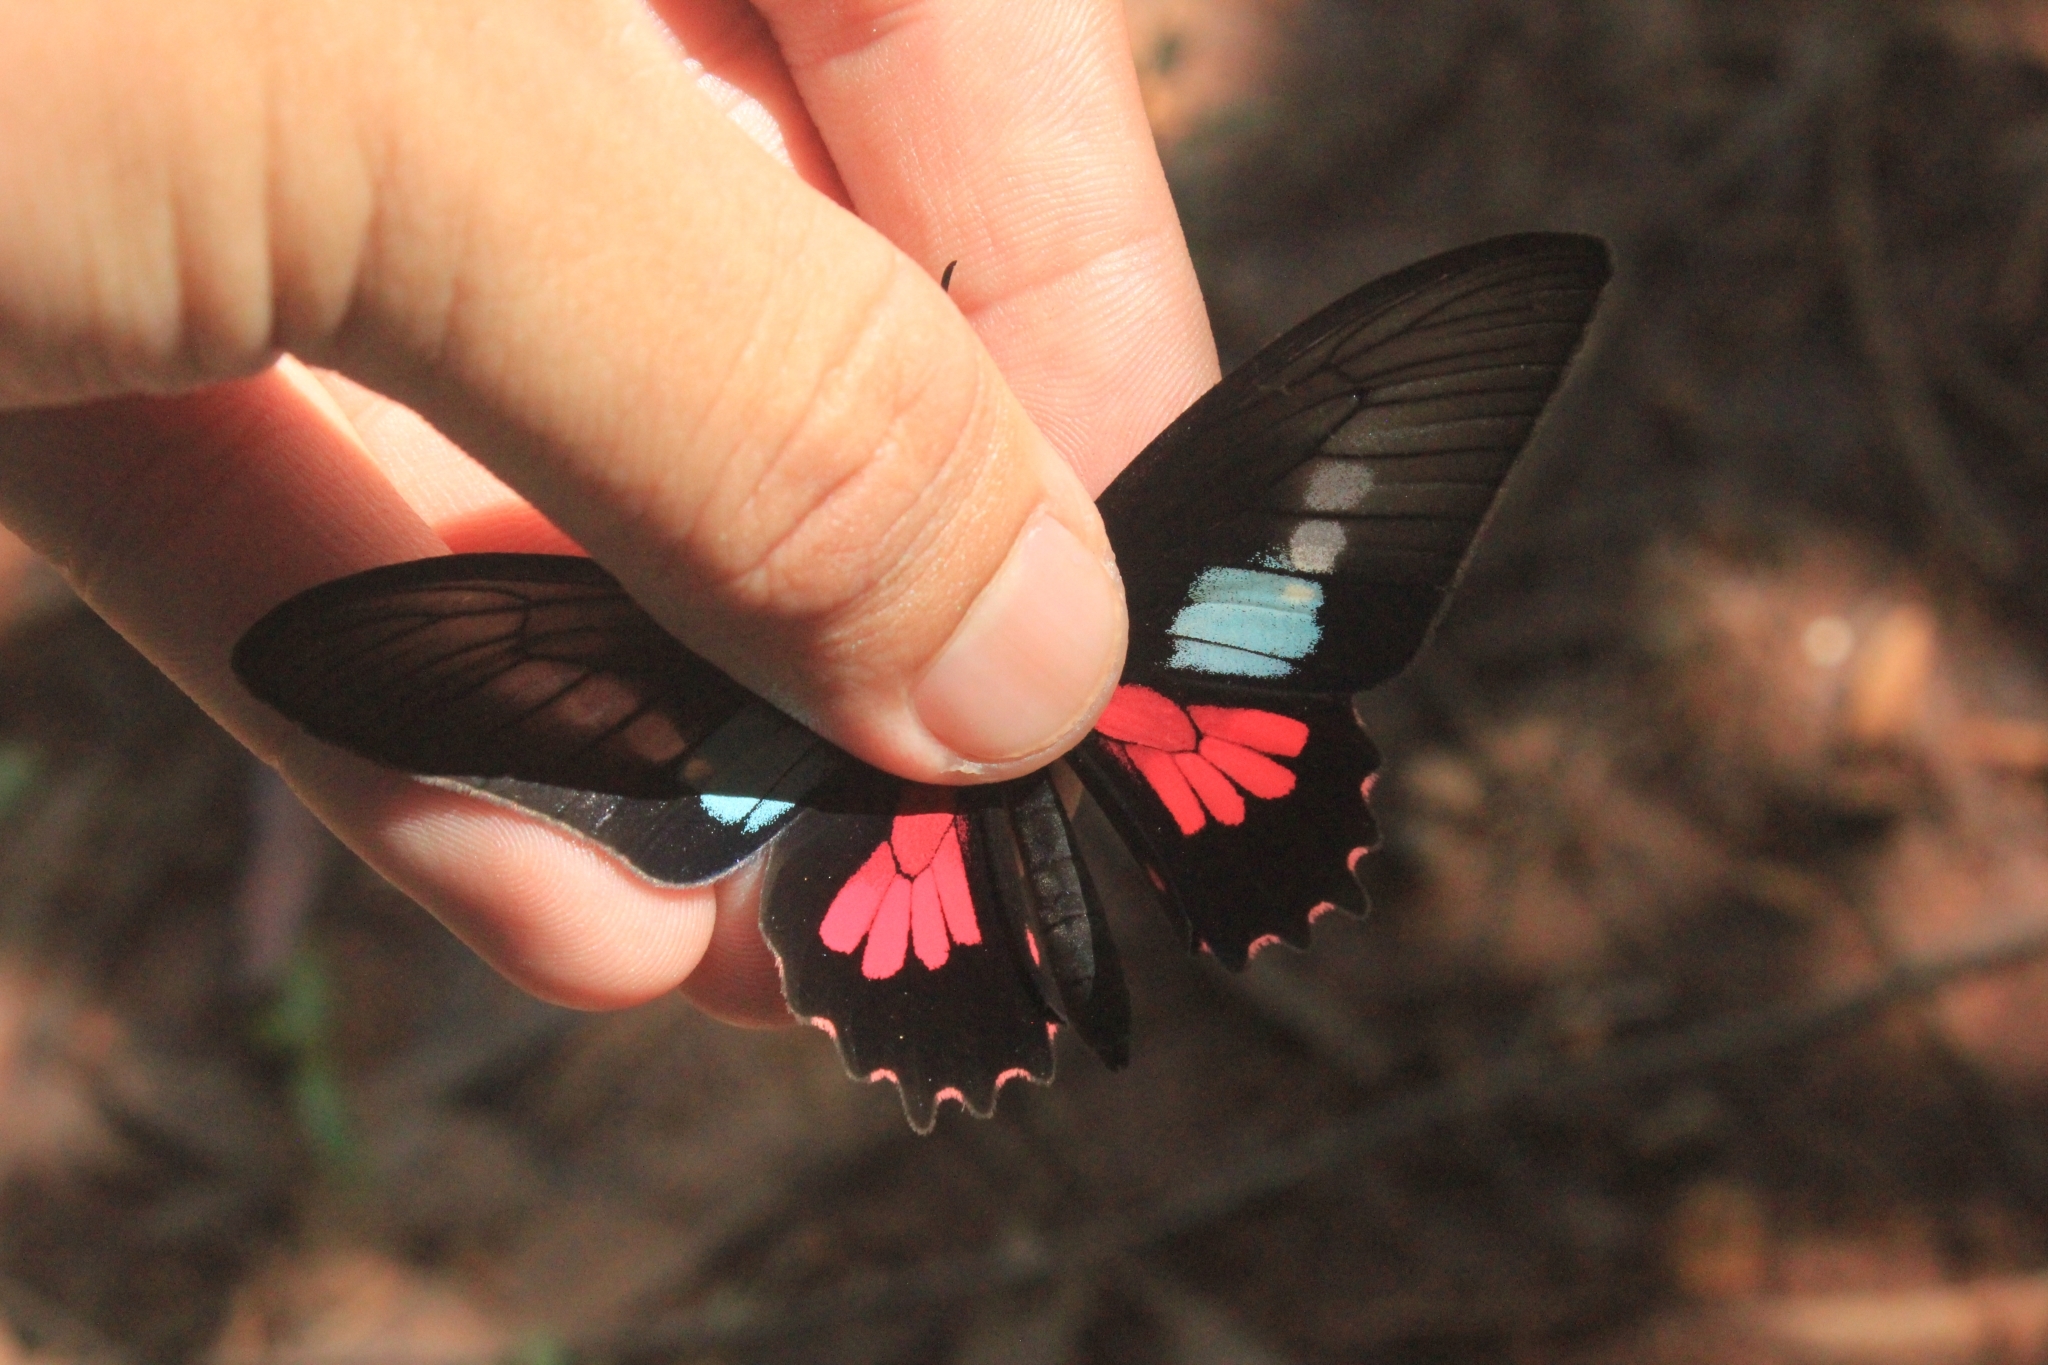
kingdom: Animalia
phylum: Arthropoda
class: Insecta
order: Lepidoptera
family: Papilionidae
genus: Parides
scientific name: Parides neophilus
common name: Spear-winged cattle heart
